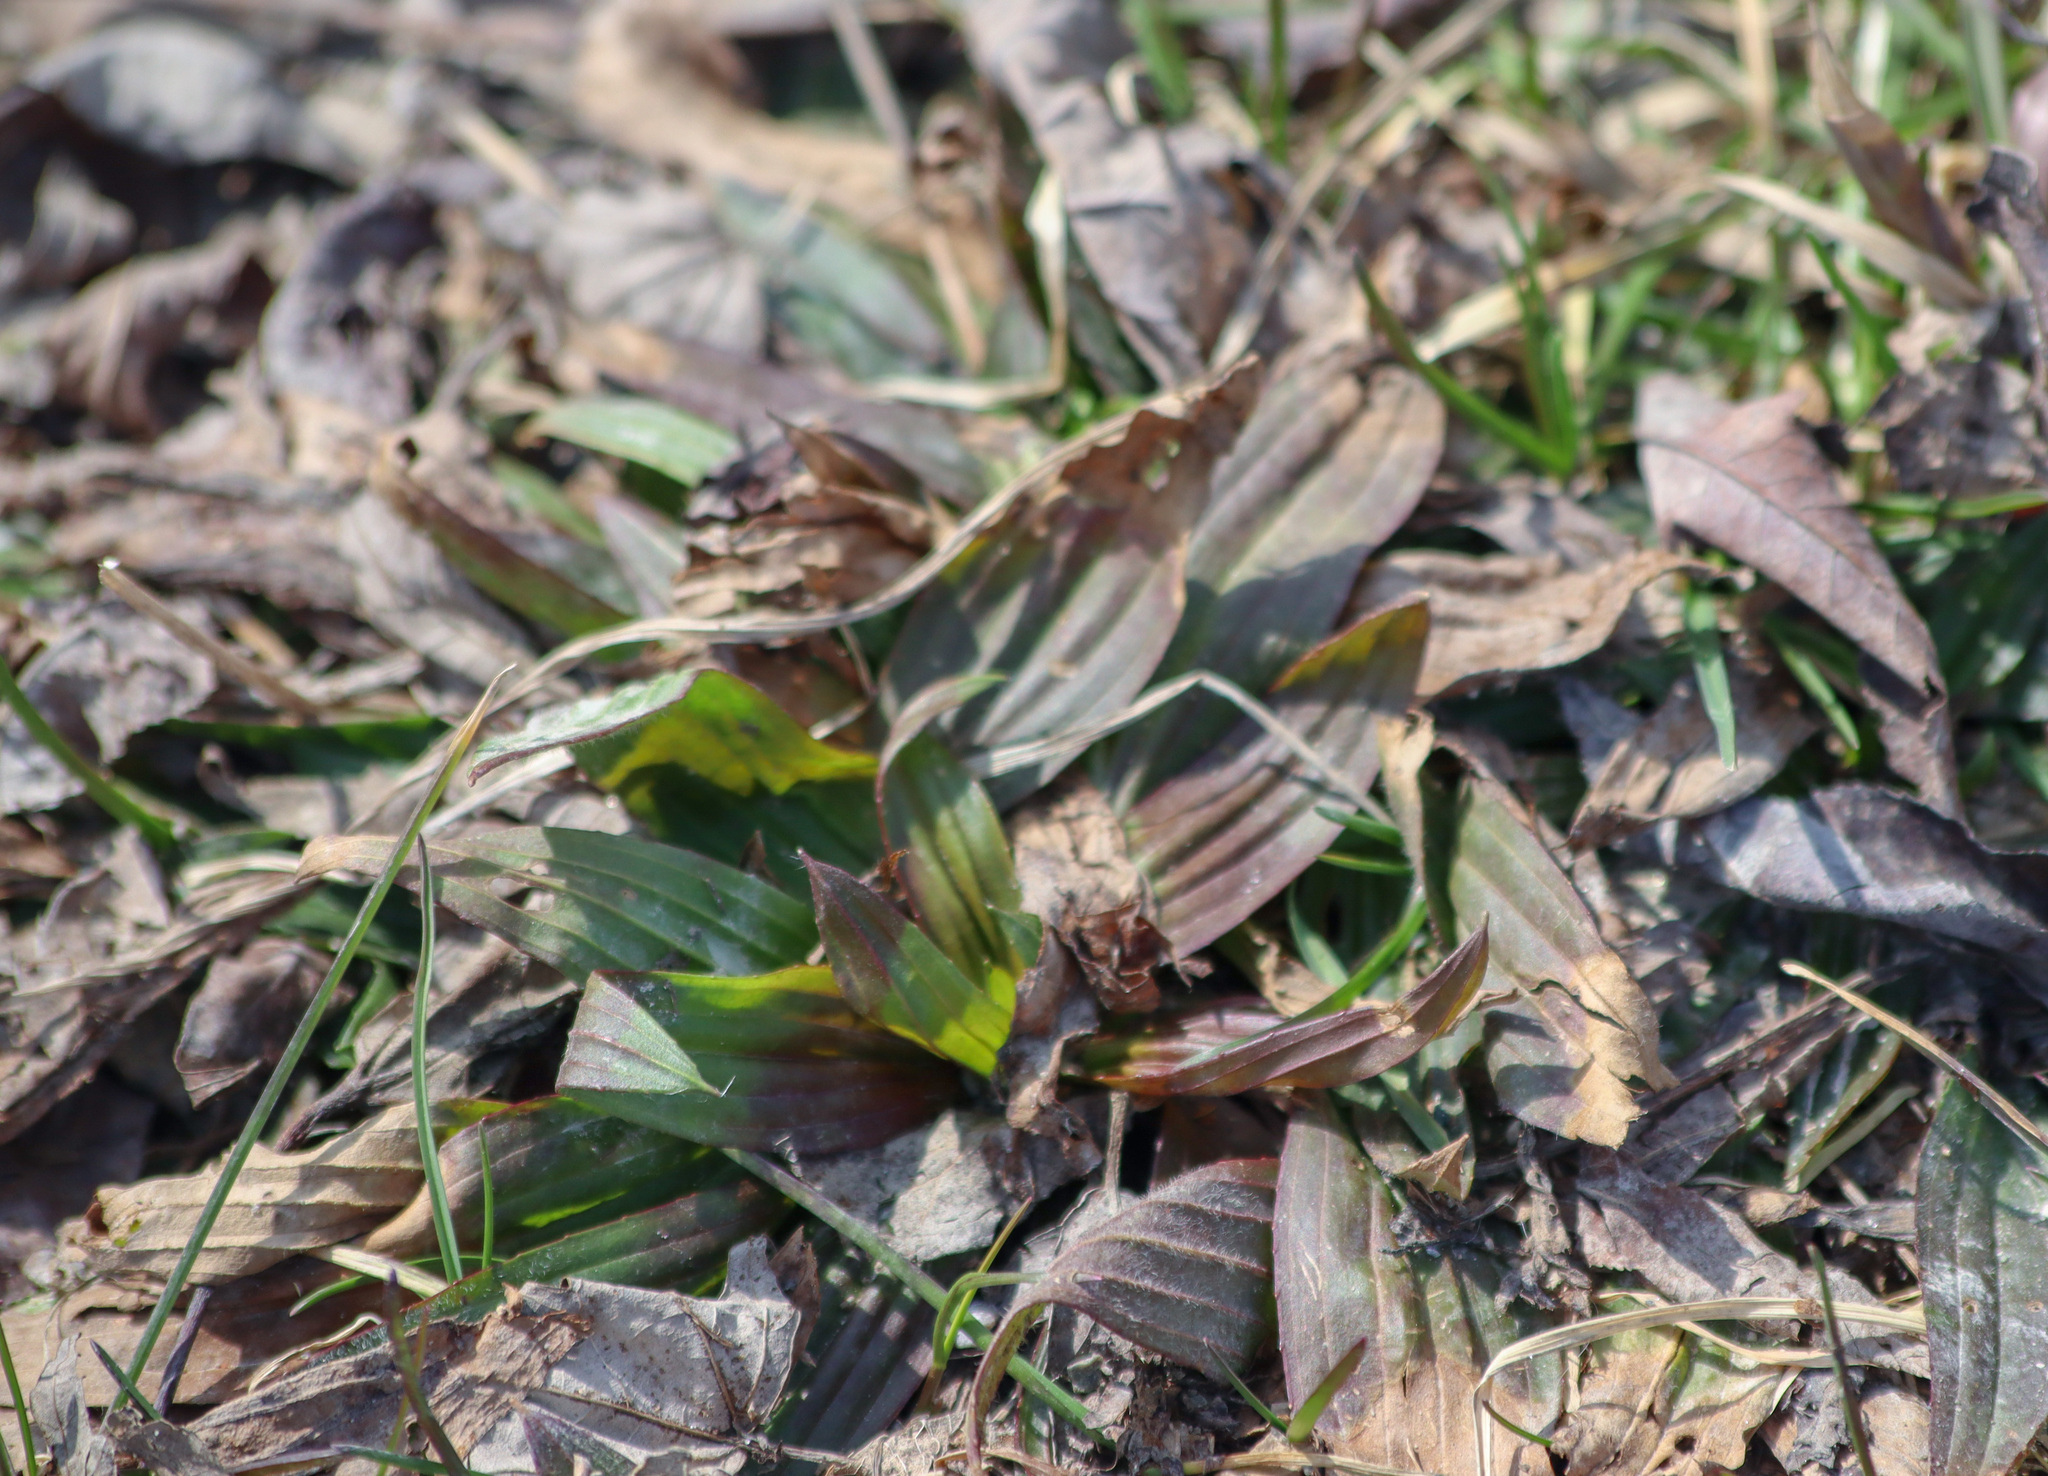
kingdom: Plantae
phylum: Tracheophyta
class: Magnoliopsida
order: Lamiales
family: Plantaginaceae
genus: Plantago
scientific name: Plantago lanceolata
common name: Ribwort plantain
